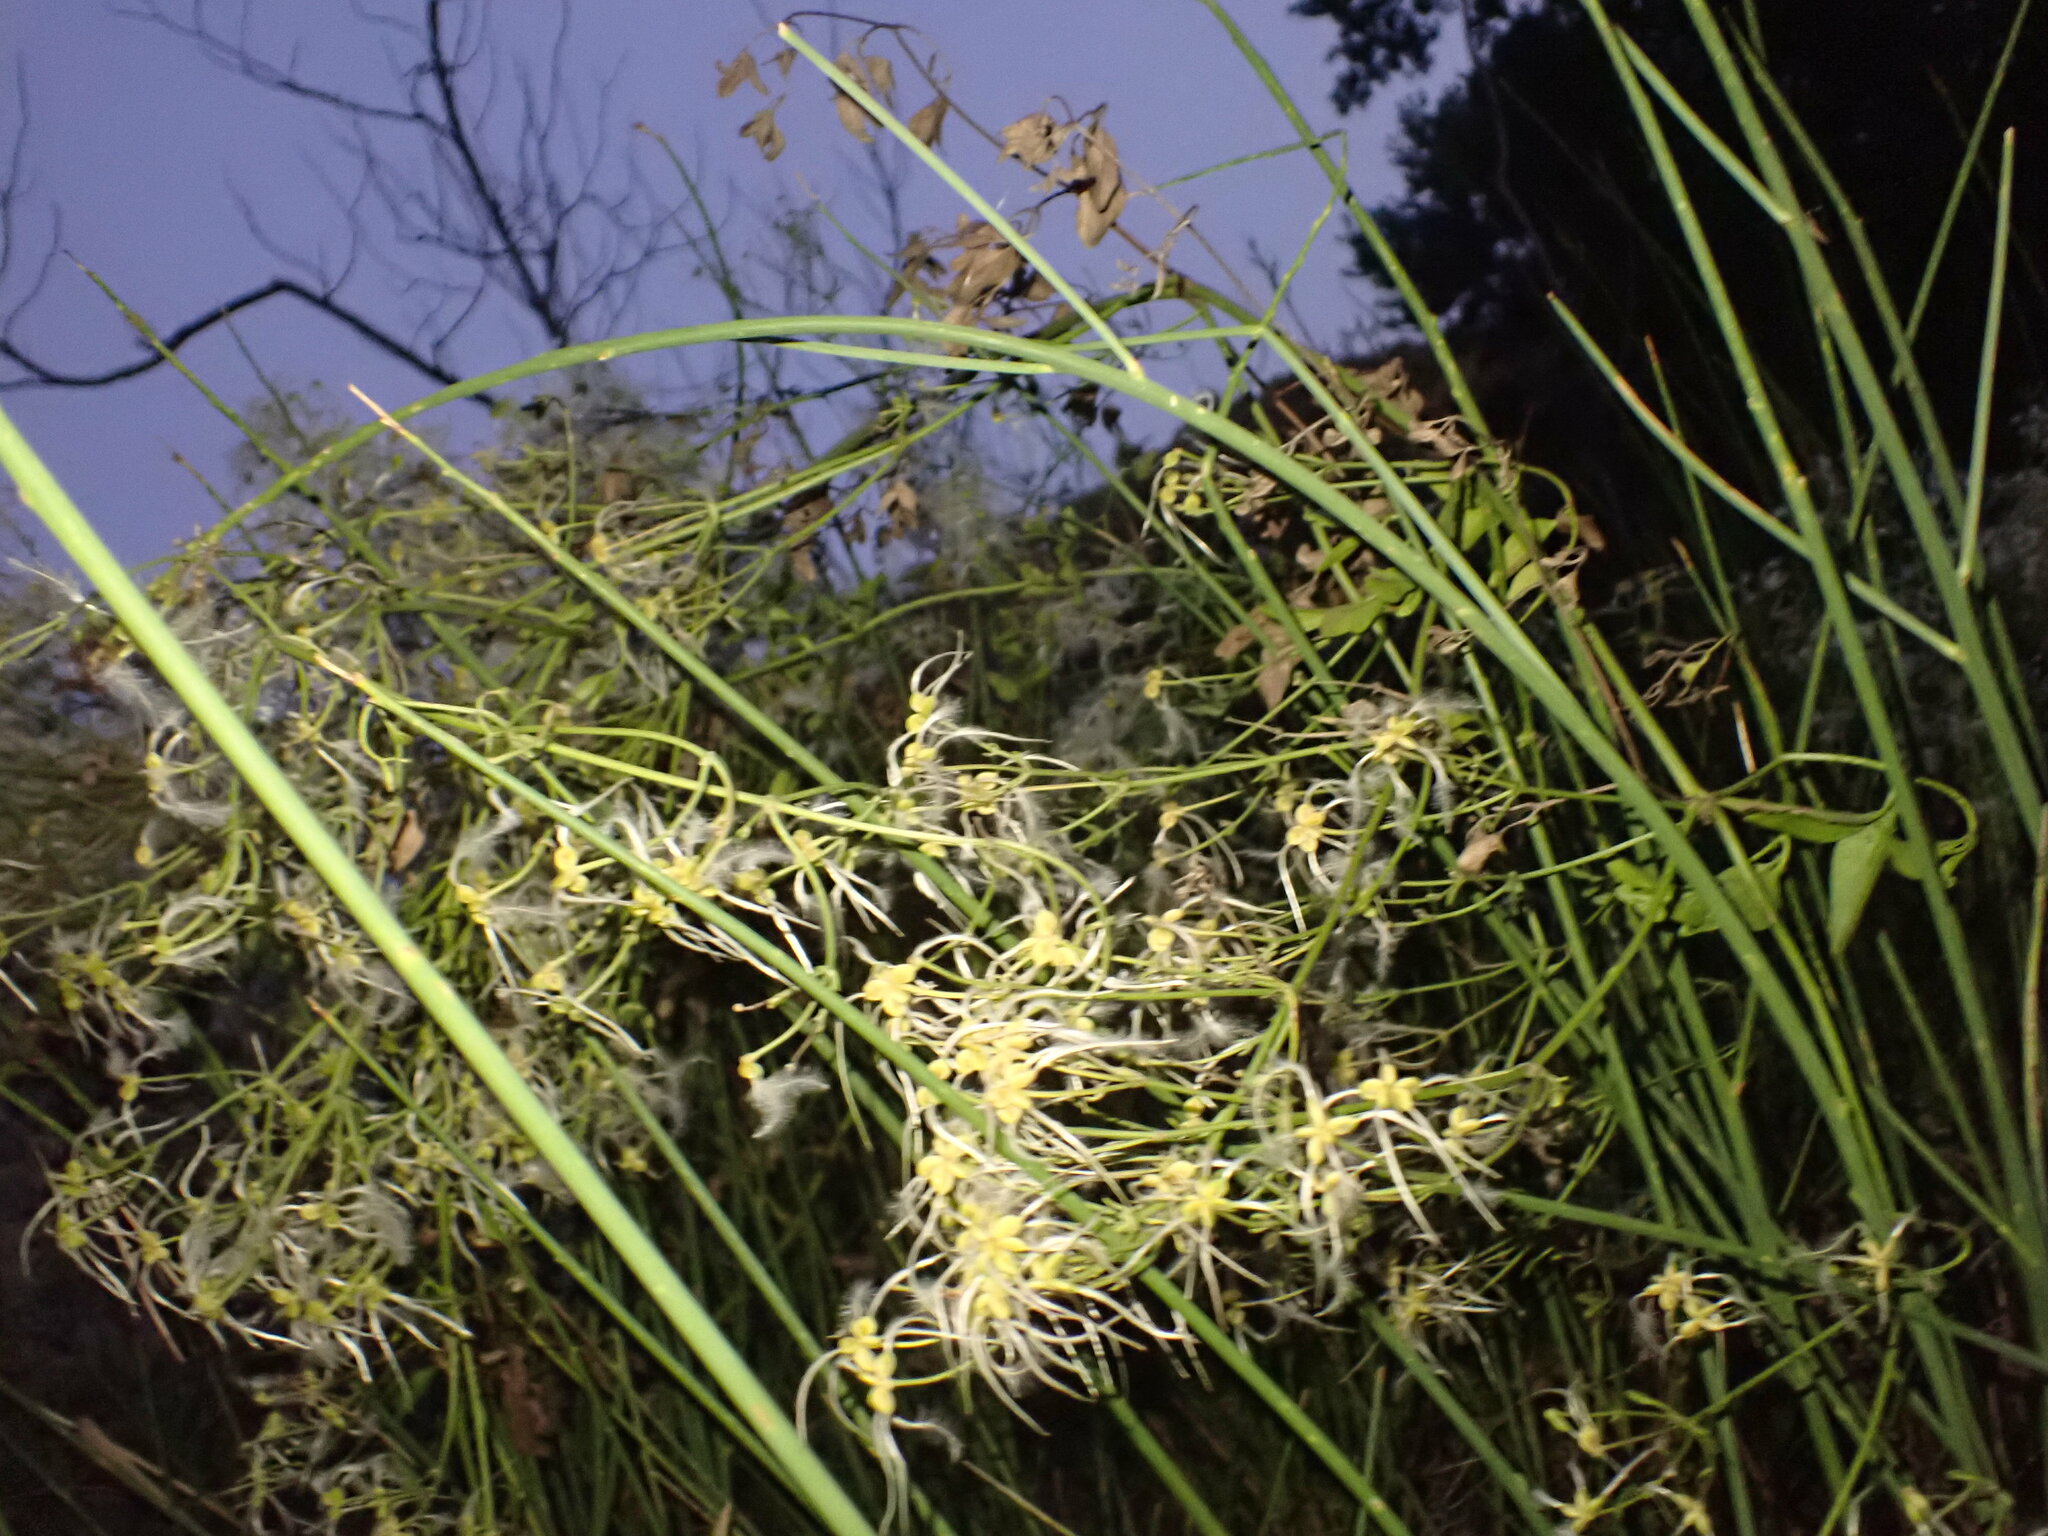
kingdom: Plantae
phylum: Tracheophyta
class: Magnoliopsida
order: Ranunculales
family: Ranunculaceae
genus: Clematis
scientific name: Clematis flammula
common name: Virgin's-bower
